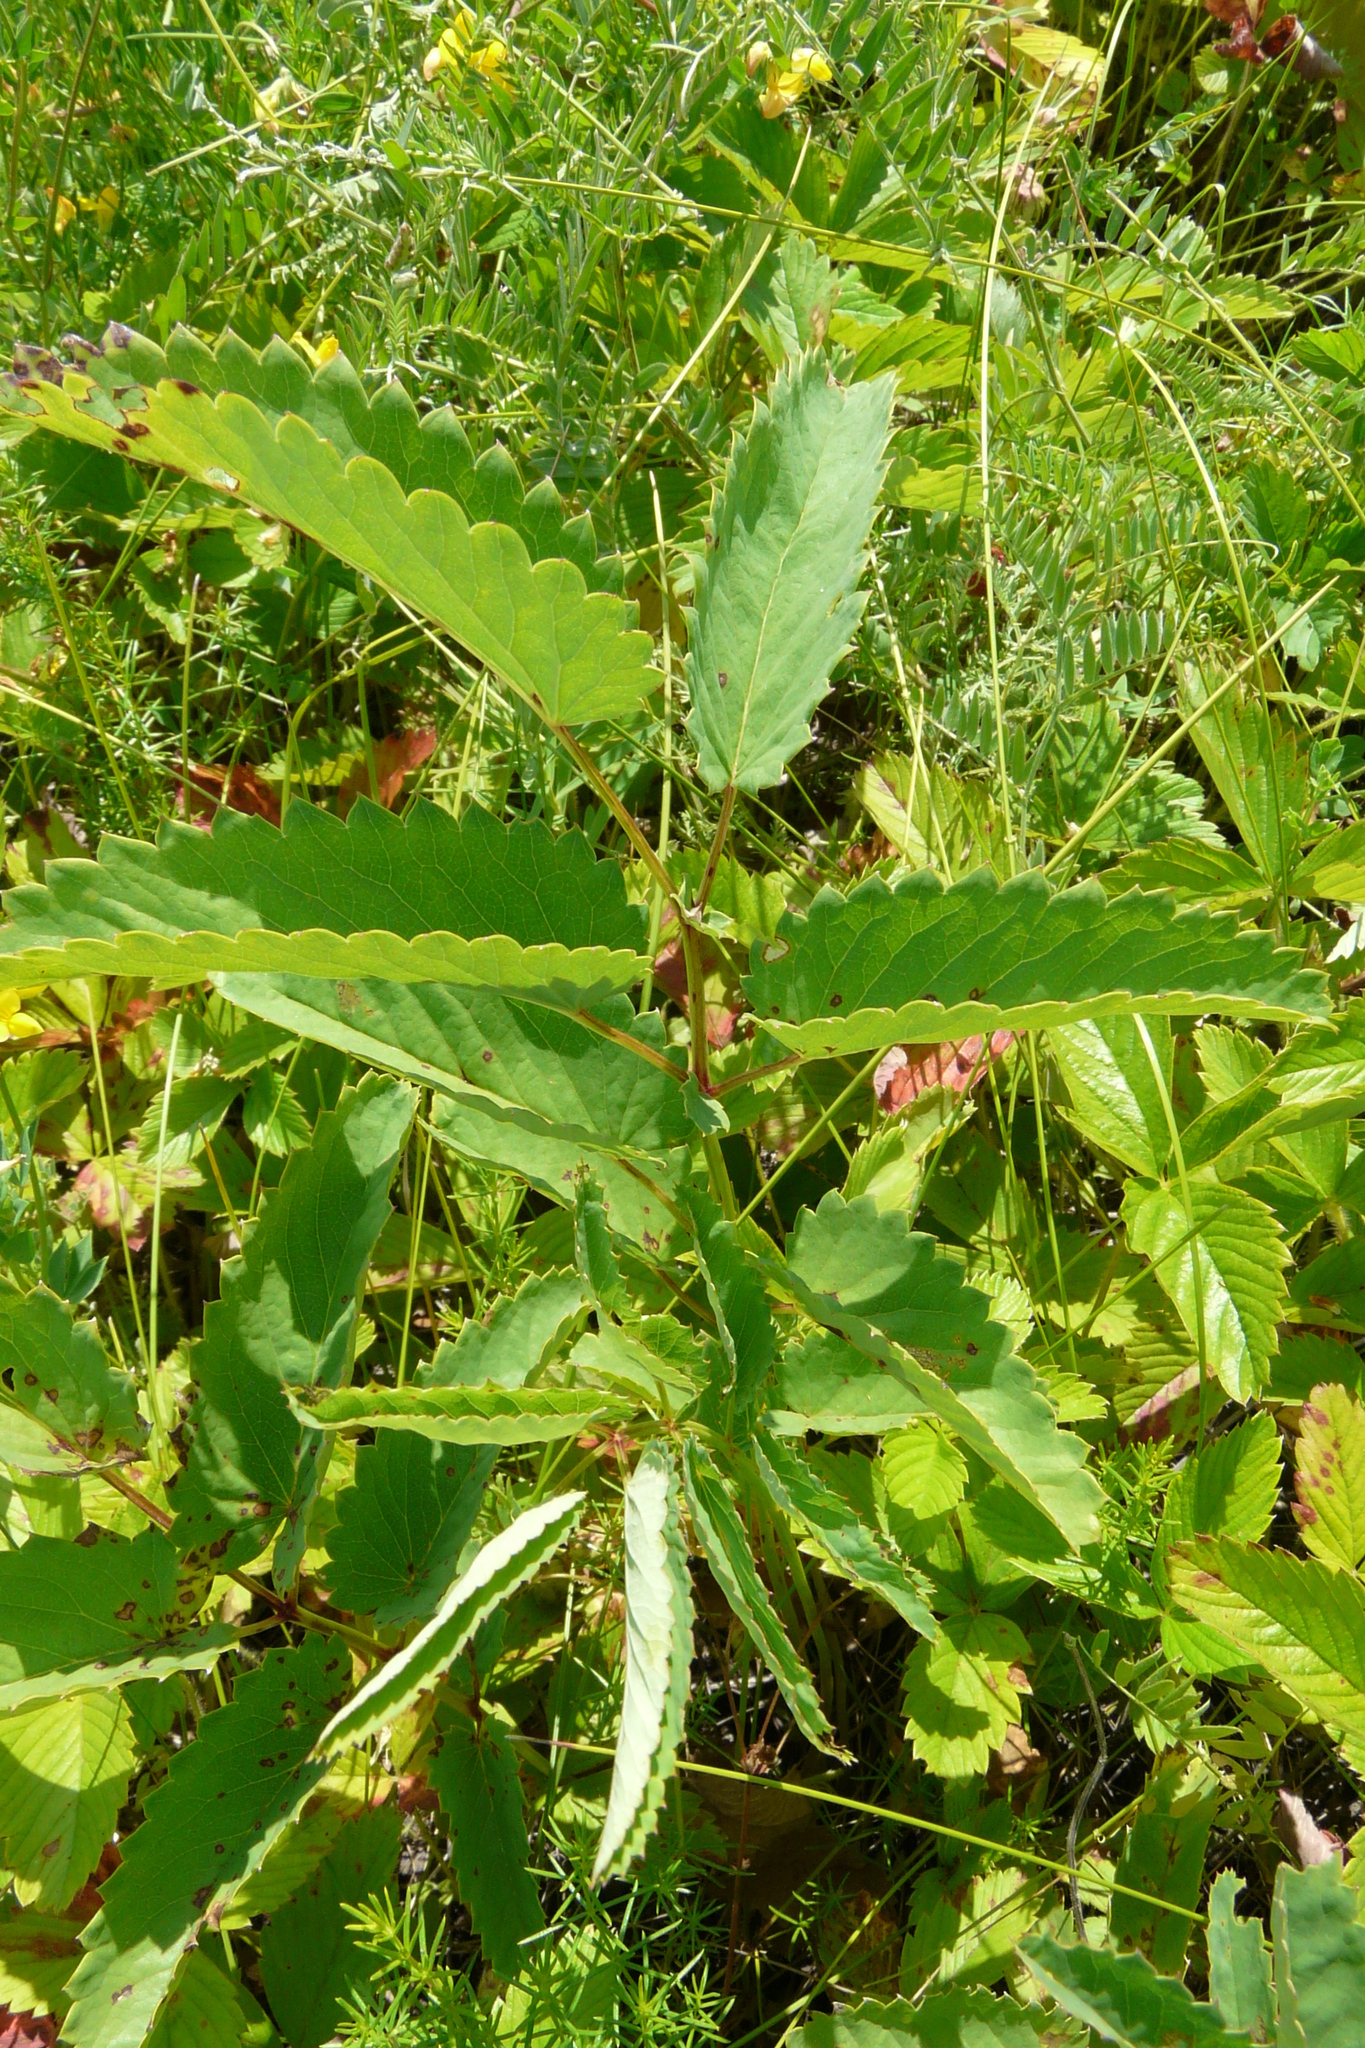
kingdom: Plantae
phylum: Tracheophyta
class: Magnoliopsida
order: Rosales
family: Rosaceae
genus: Sanguisorba
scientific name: Sanguisorba officinalis
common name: Great burnet
